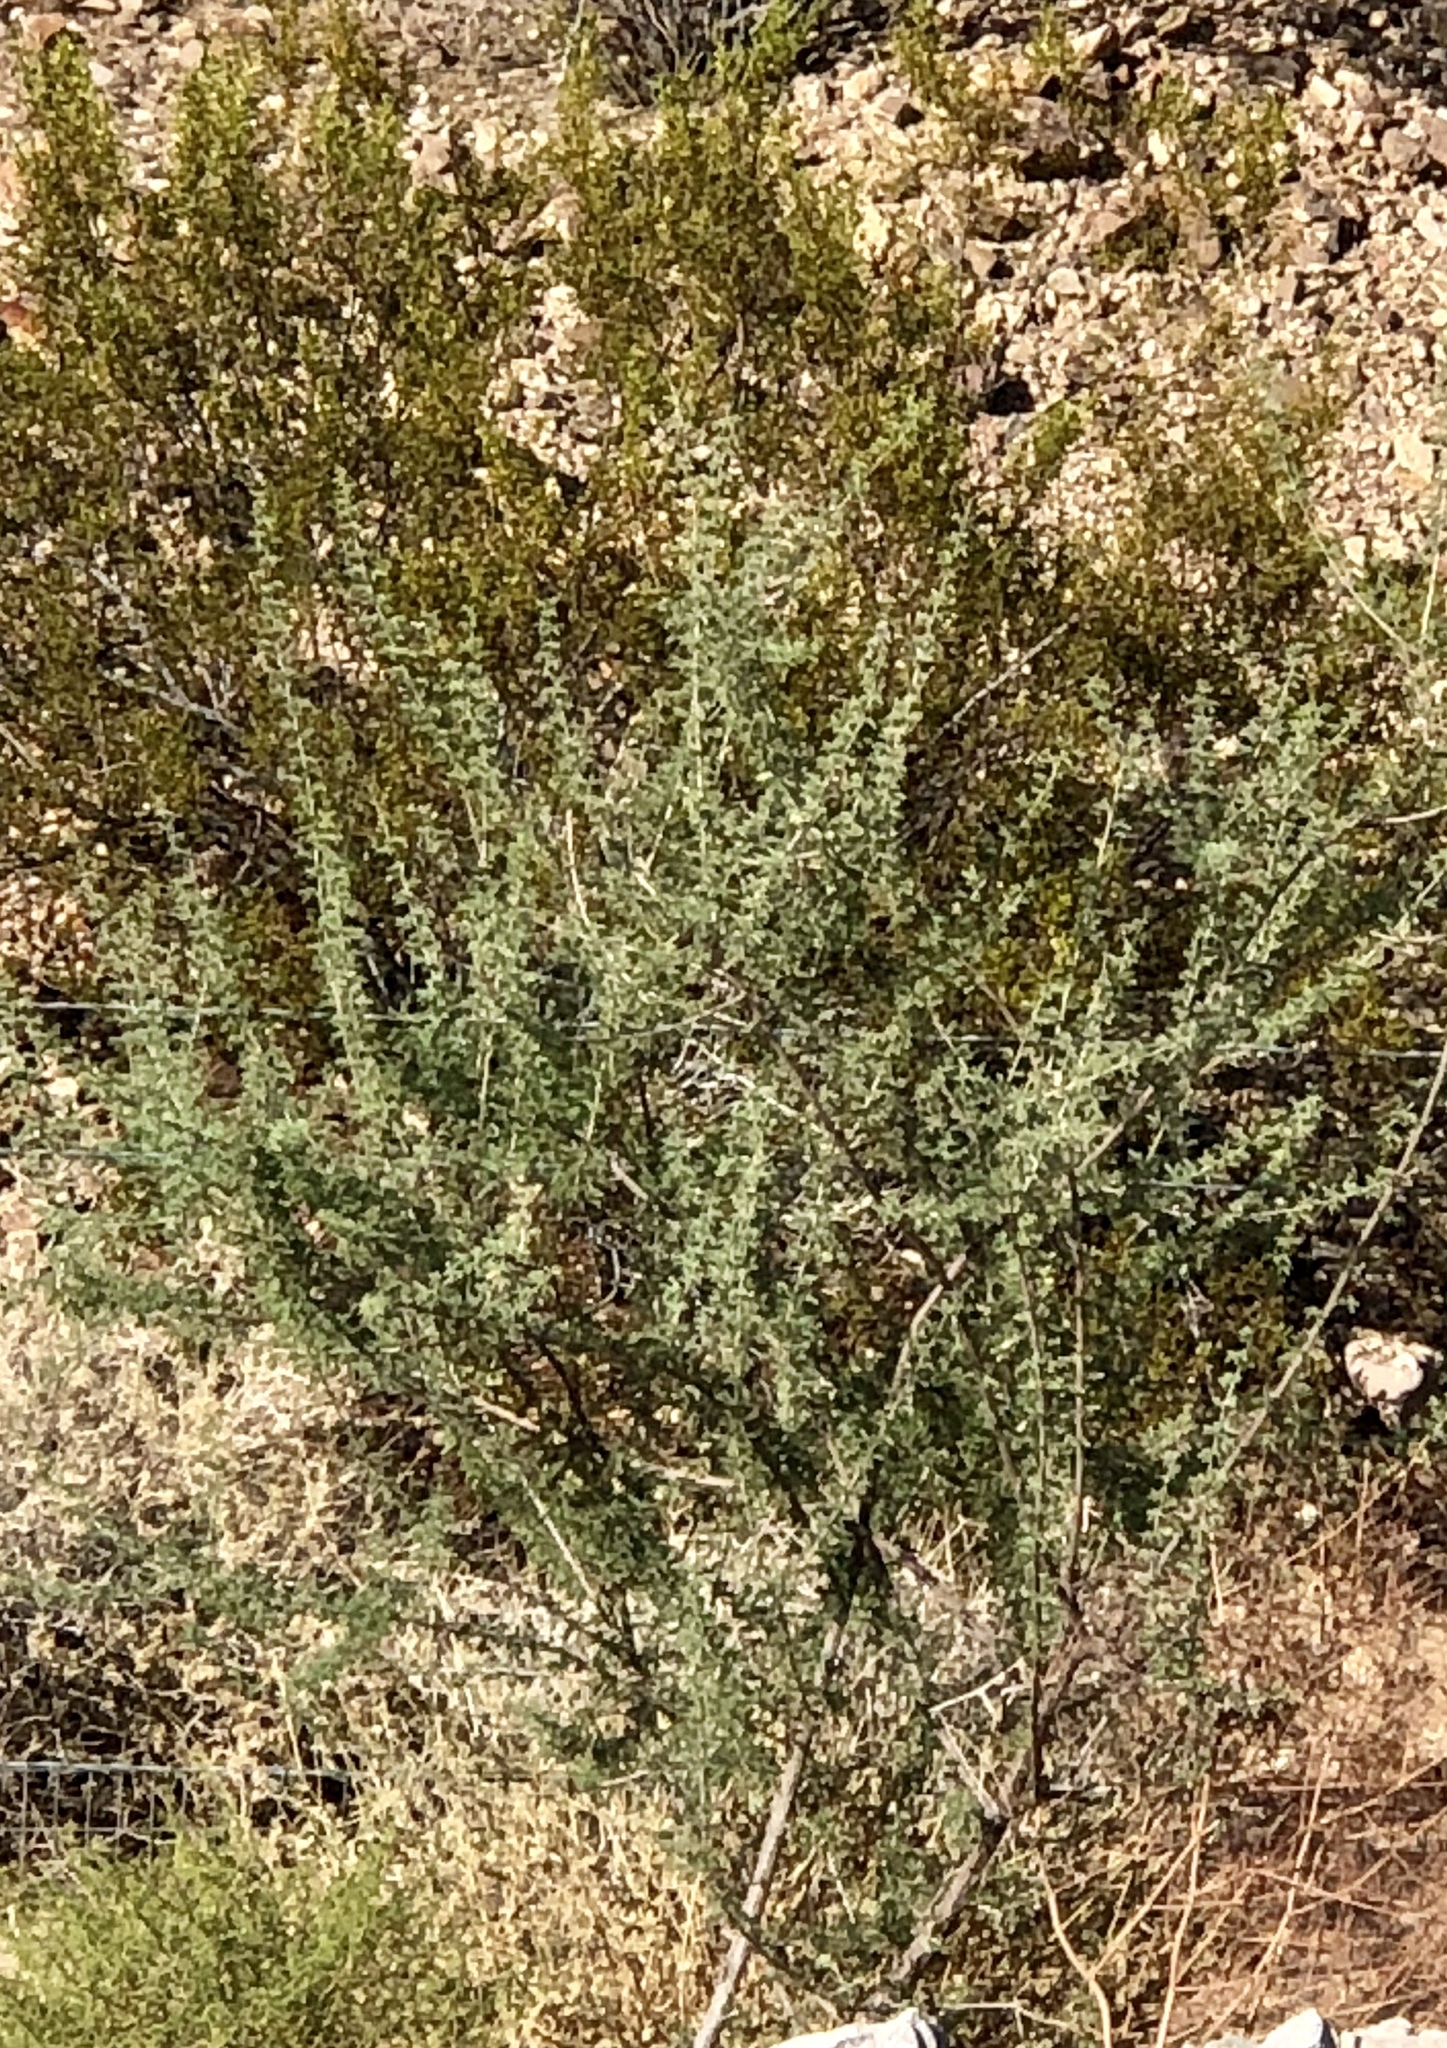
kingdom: Plantae
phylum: Tracheophyta
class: Magnoliopsida
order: Fabales
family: Fabaceae
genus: Senegalia
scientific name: Senegalia greggii
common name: Texas-mimosa
